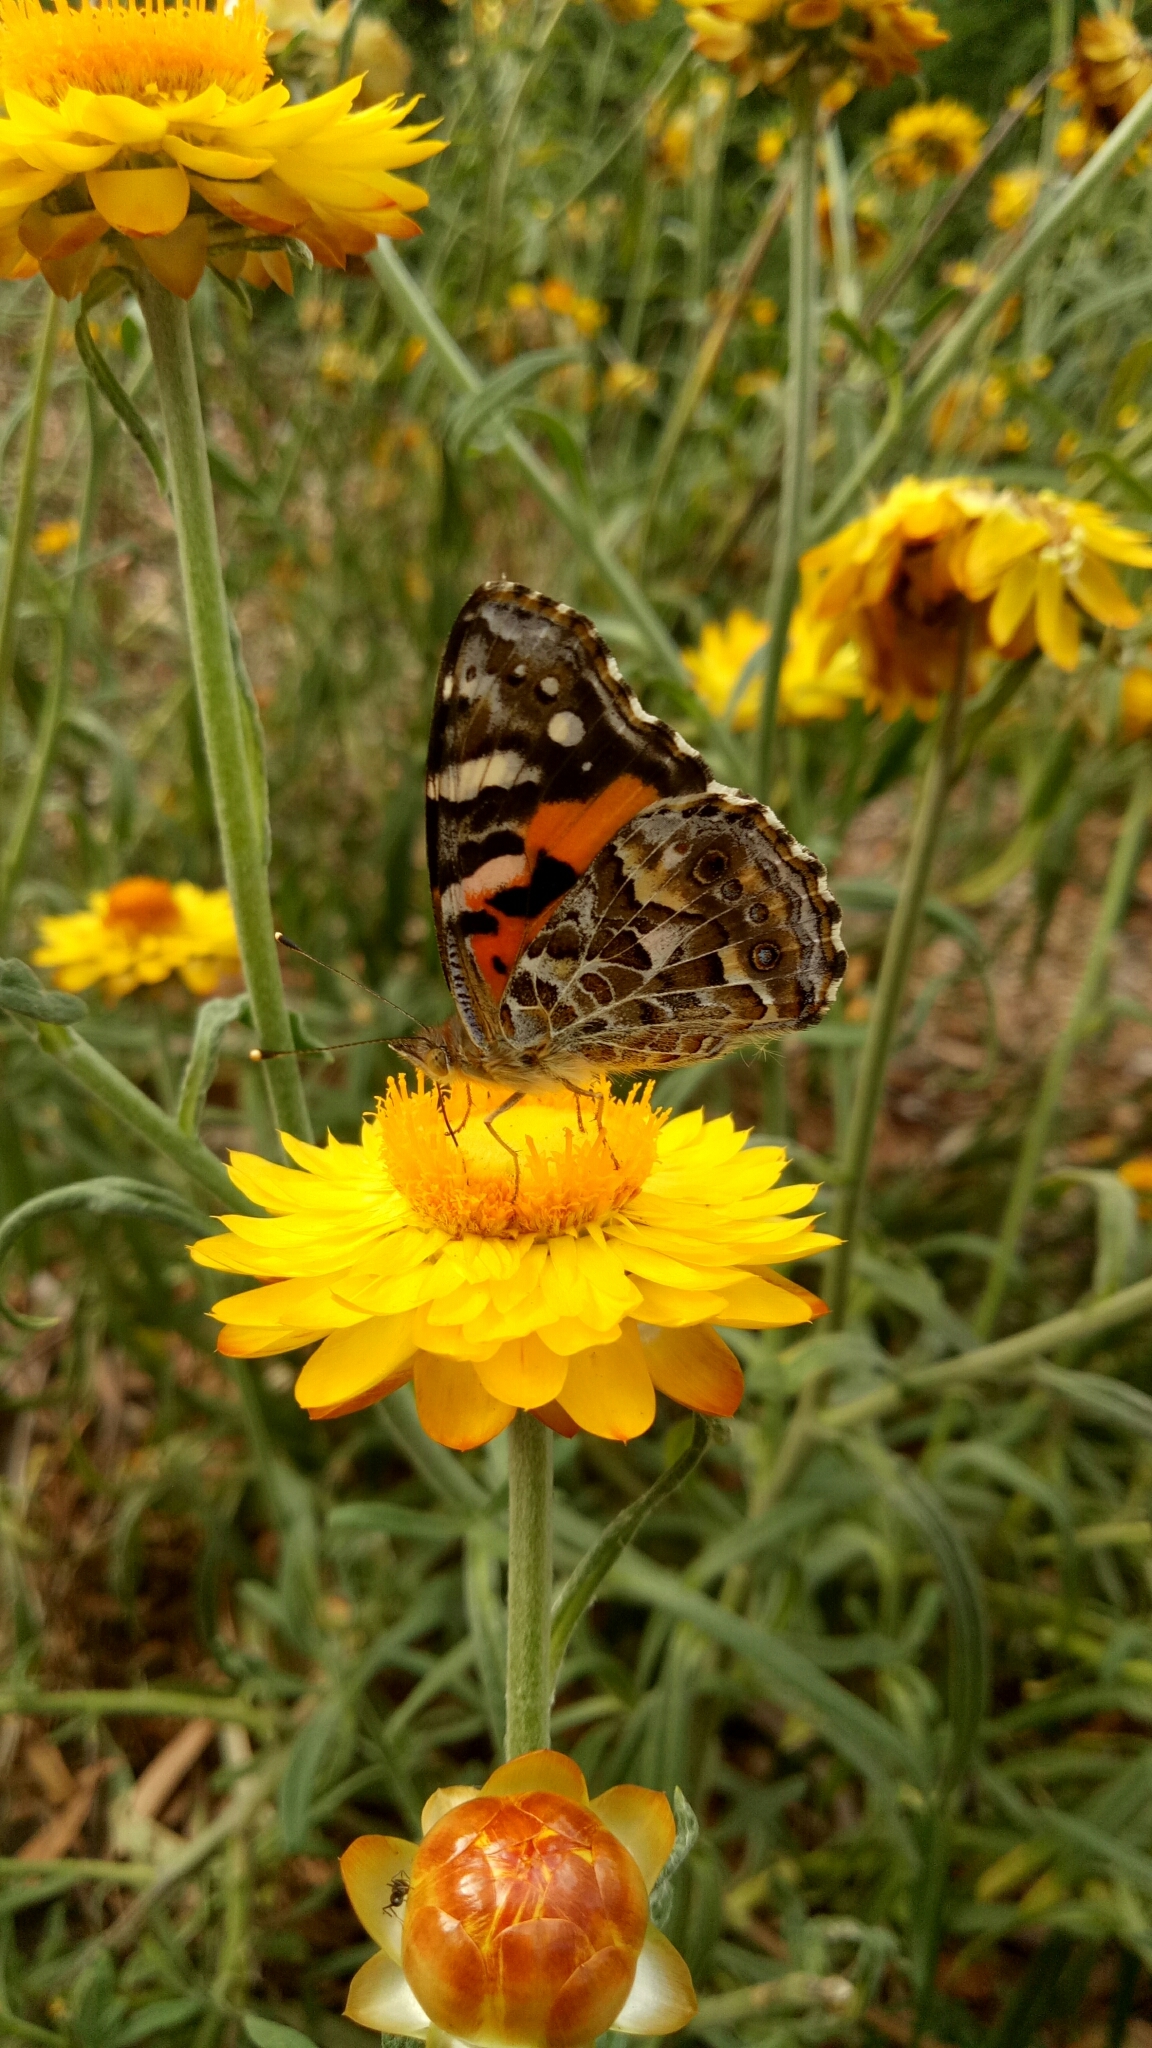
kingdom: Animalia
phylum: Arthropoda
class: Insecta
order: Lepidoptera
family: Nymphalidae
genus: Vanessa
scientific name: Vanessa kershawi
